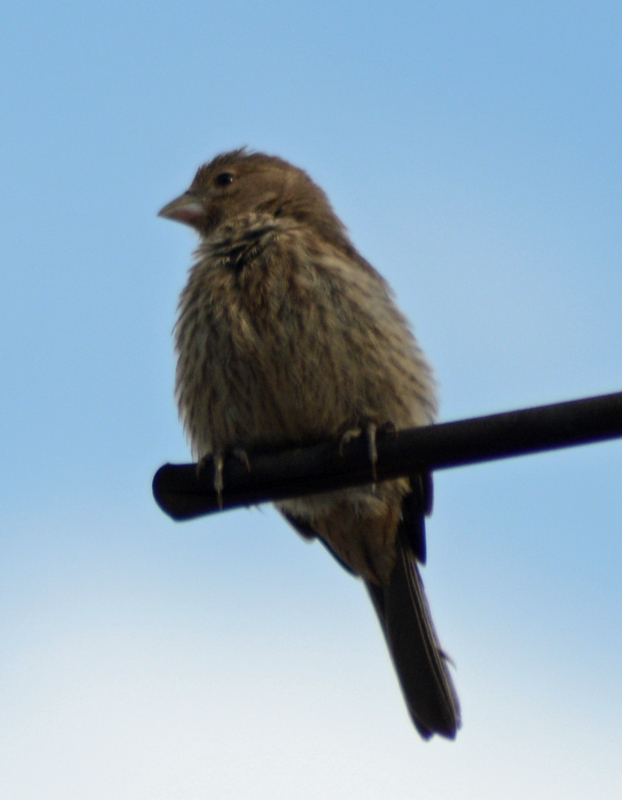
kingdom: Animalia
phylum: Chordata
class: Aves
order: Passeriformes
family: Fringillidae
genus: Haemorhous
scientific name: Haemorhous mexicanus
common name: House finch
